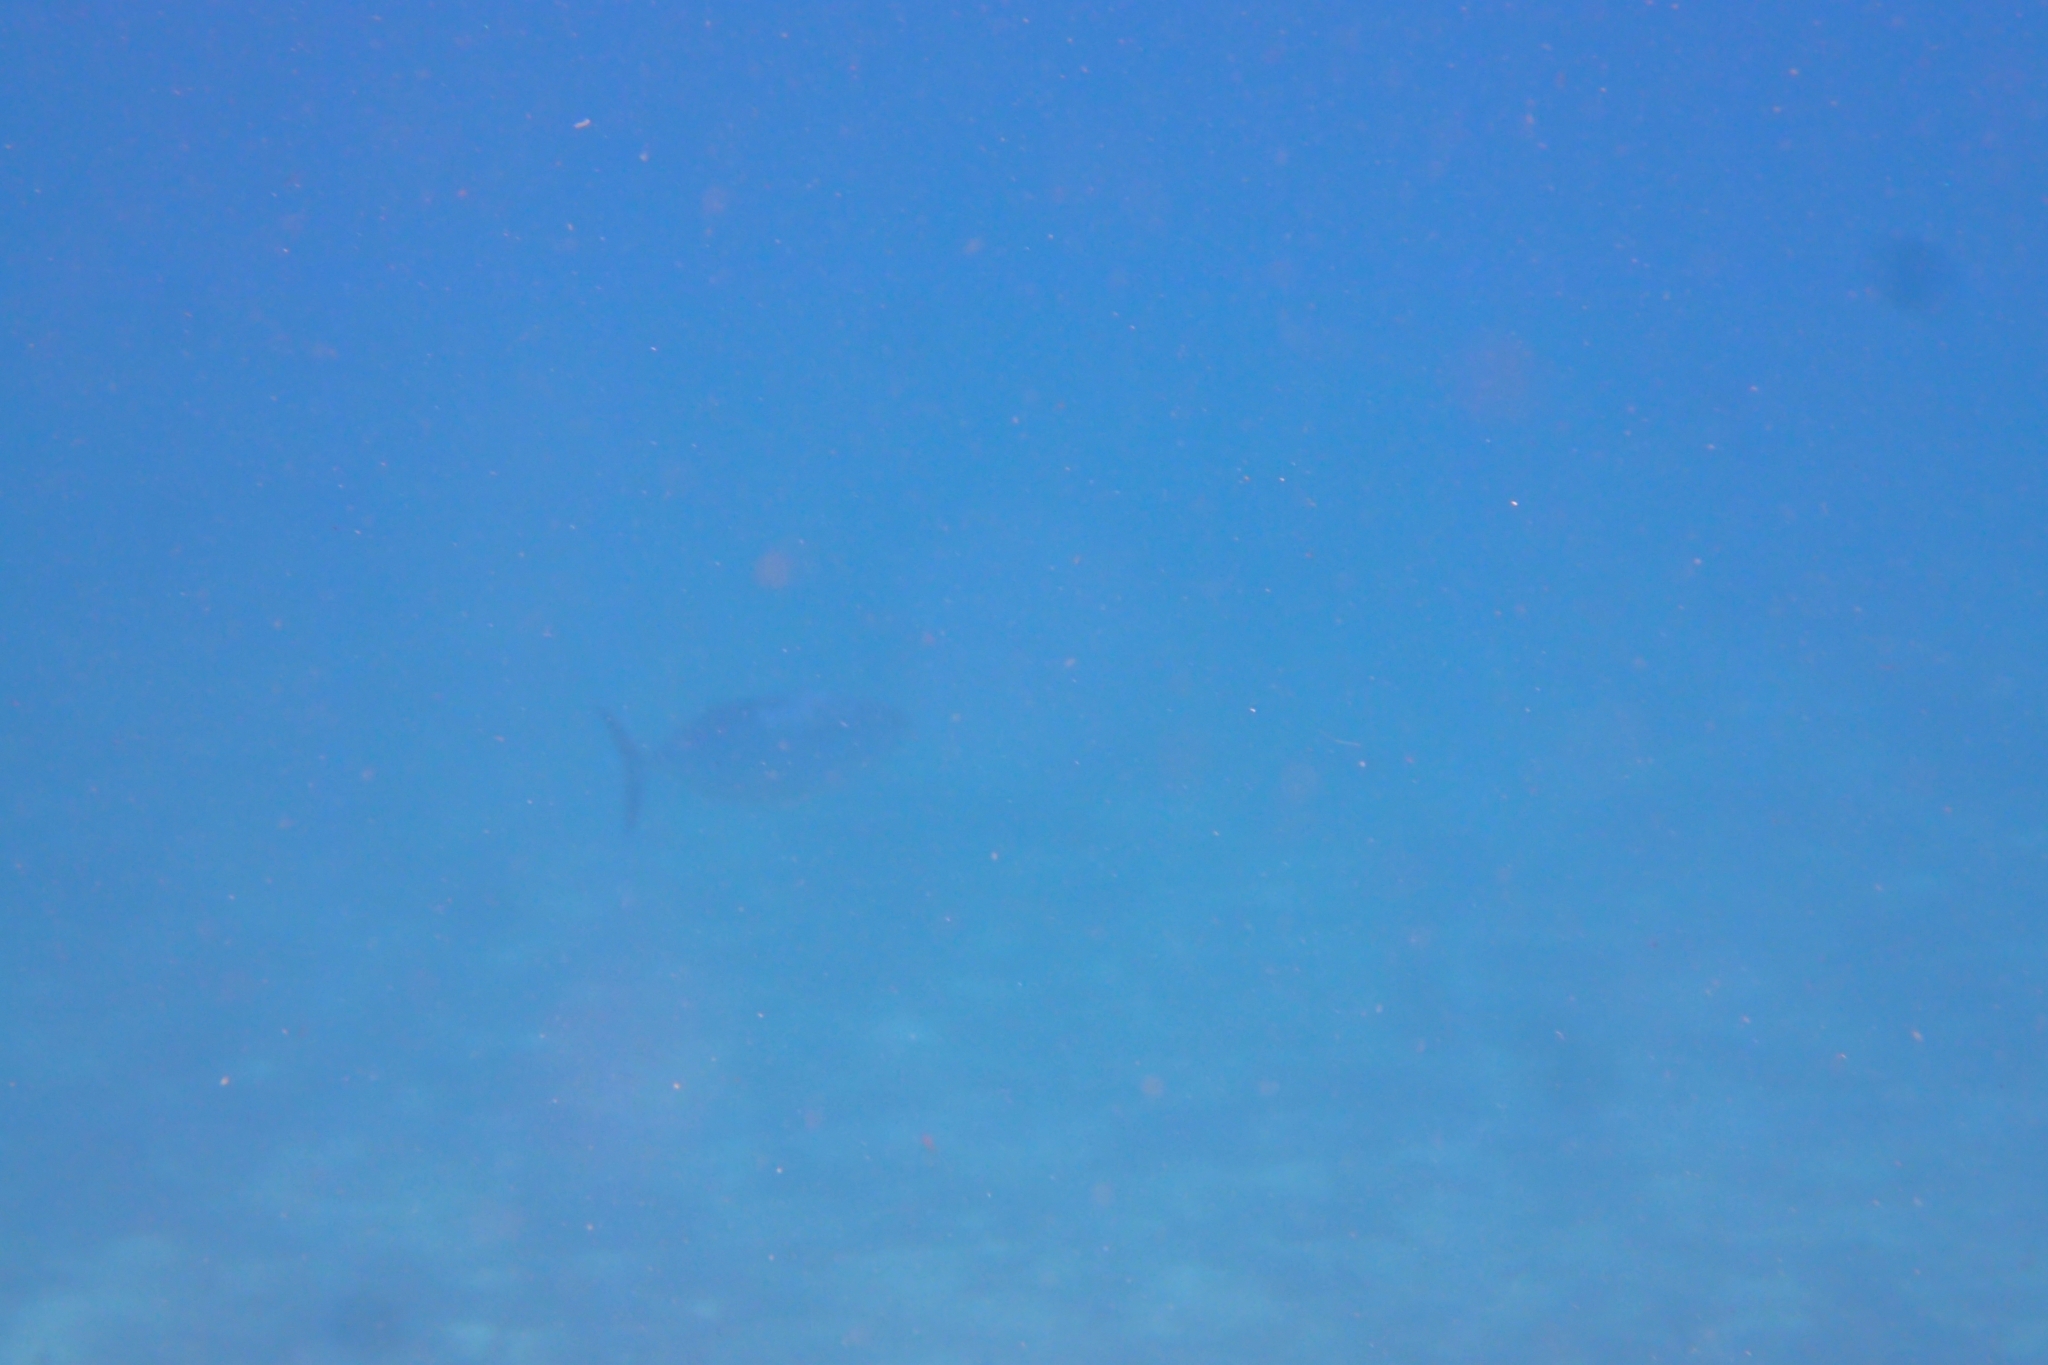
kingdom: Animalia
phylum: Chordata
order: Perciformes
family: Scombridae
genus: Euthynnus
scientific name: Euthynnus alletteratus
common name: Little tunny
